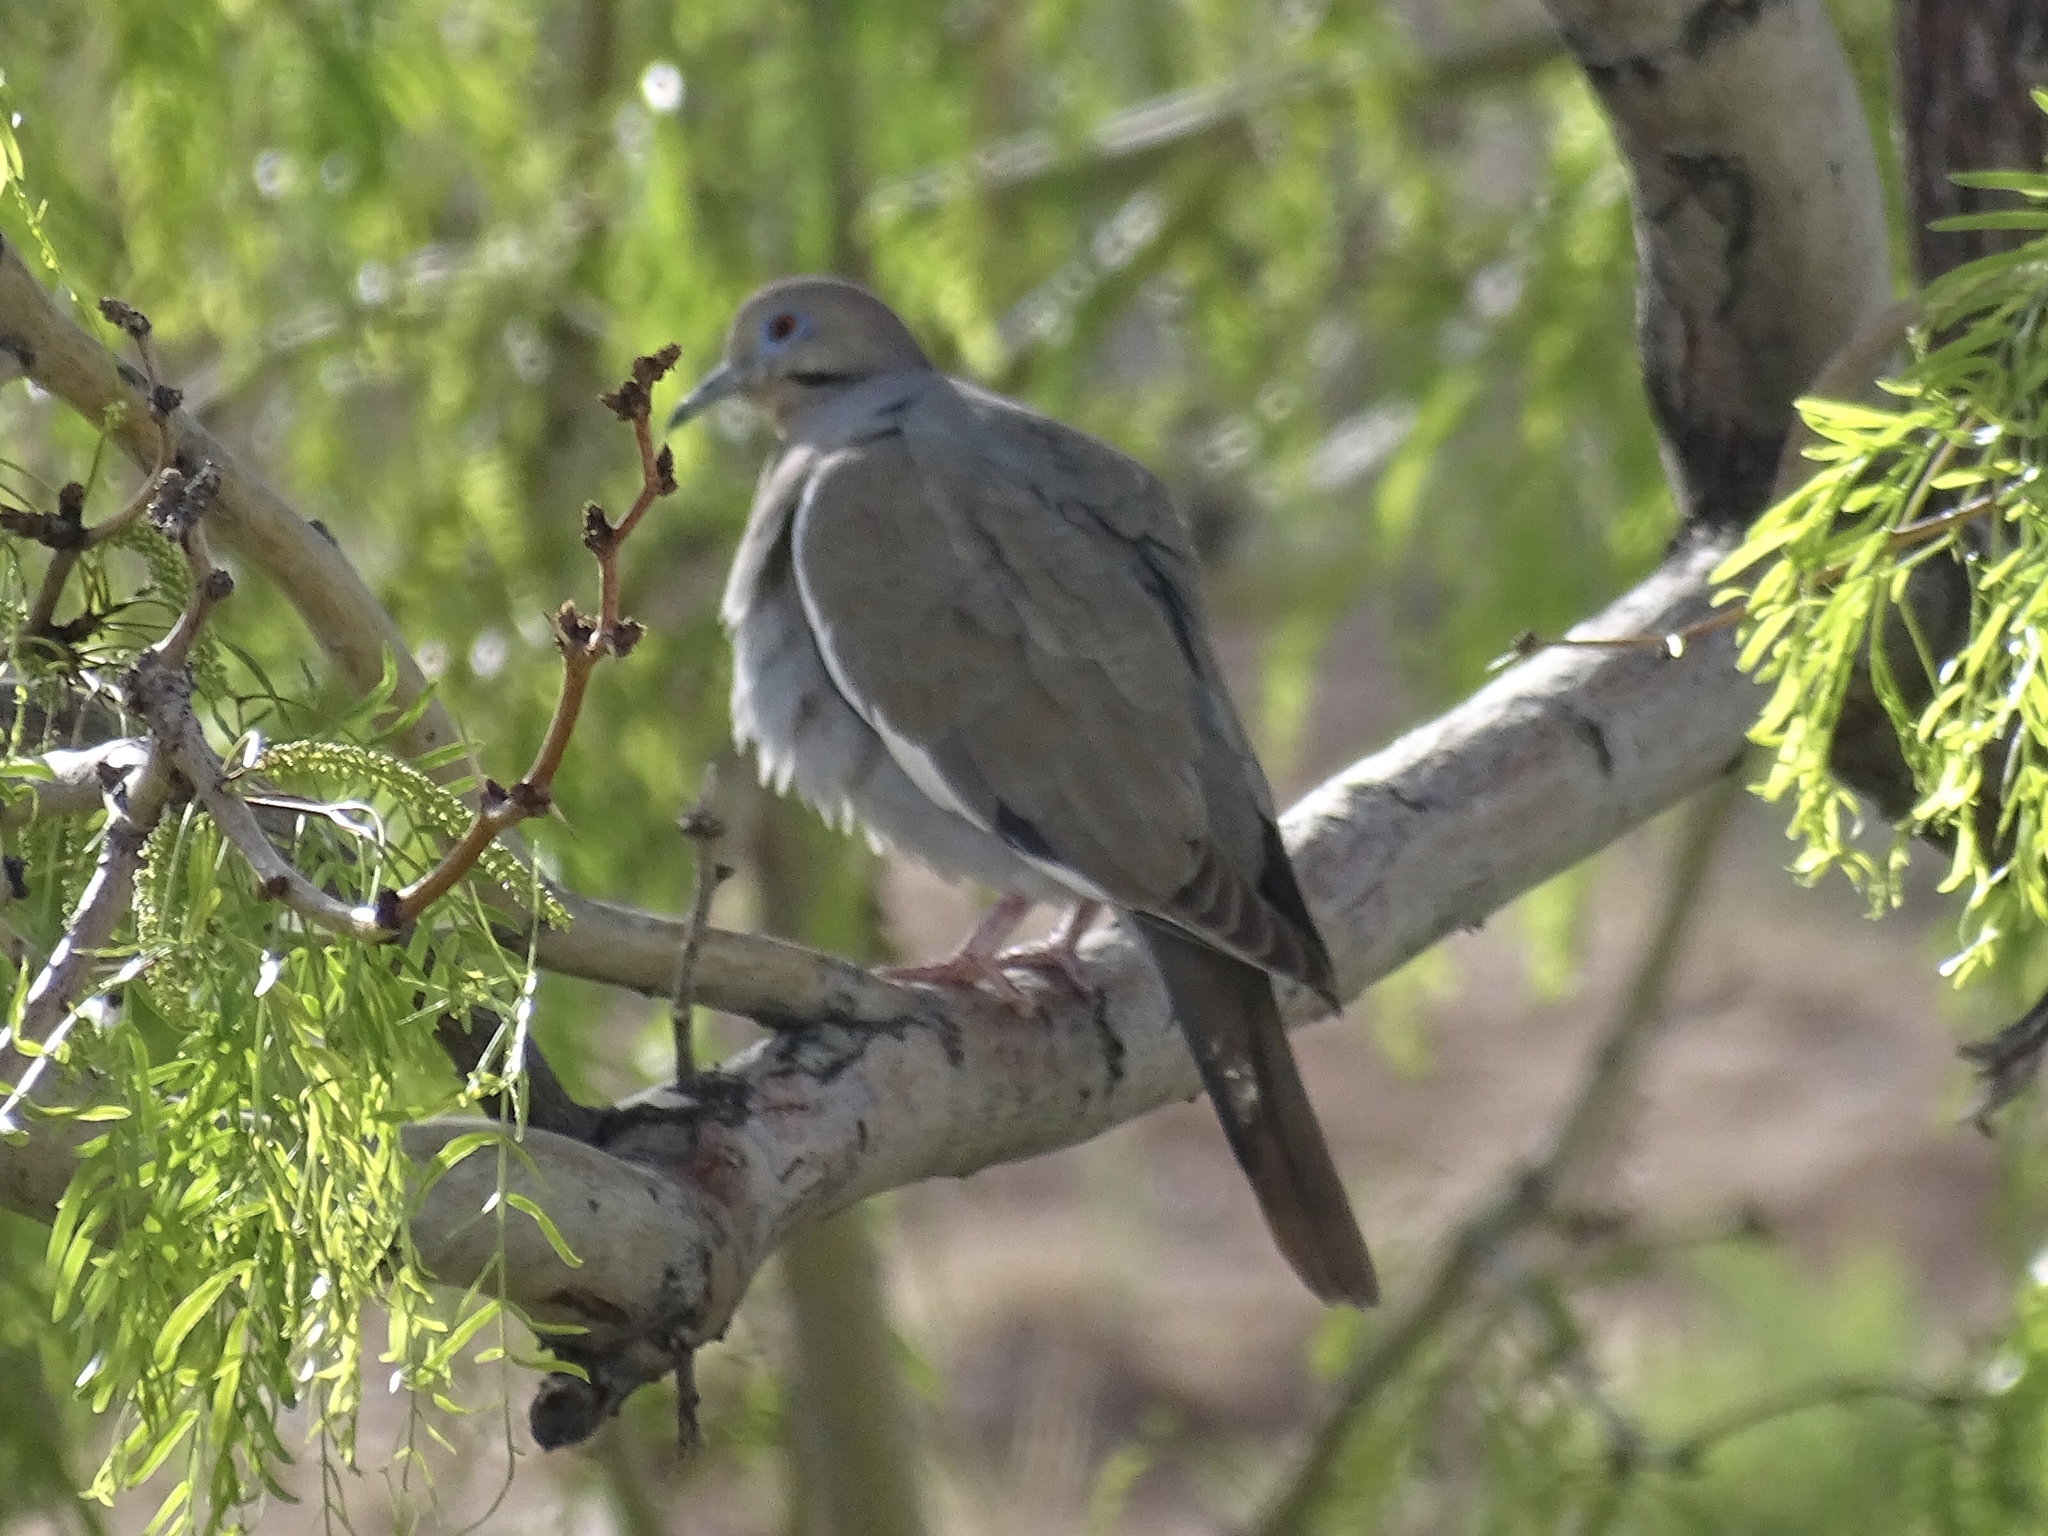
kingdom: Animalia
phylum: Chordata
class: Aves
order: Columbiformes
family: Columbidae
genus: Zenaida
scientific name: Zenaida asiatica
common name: White-winged dove
